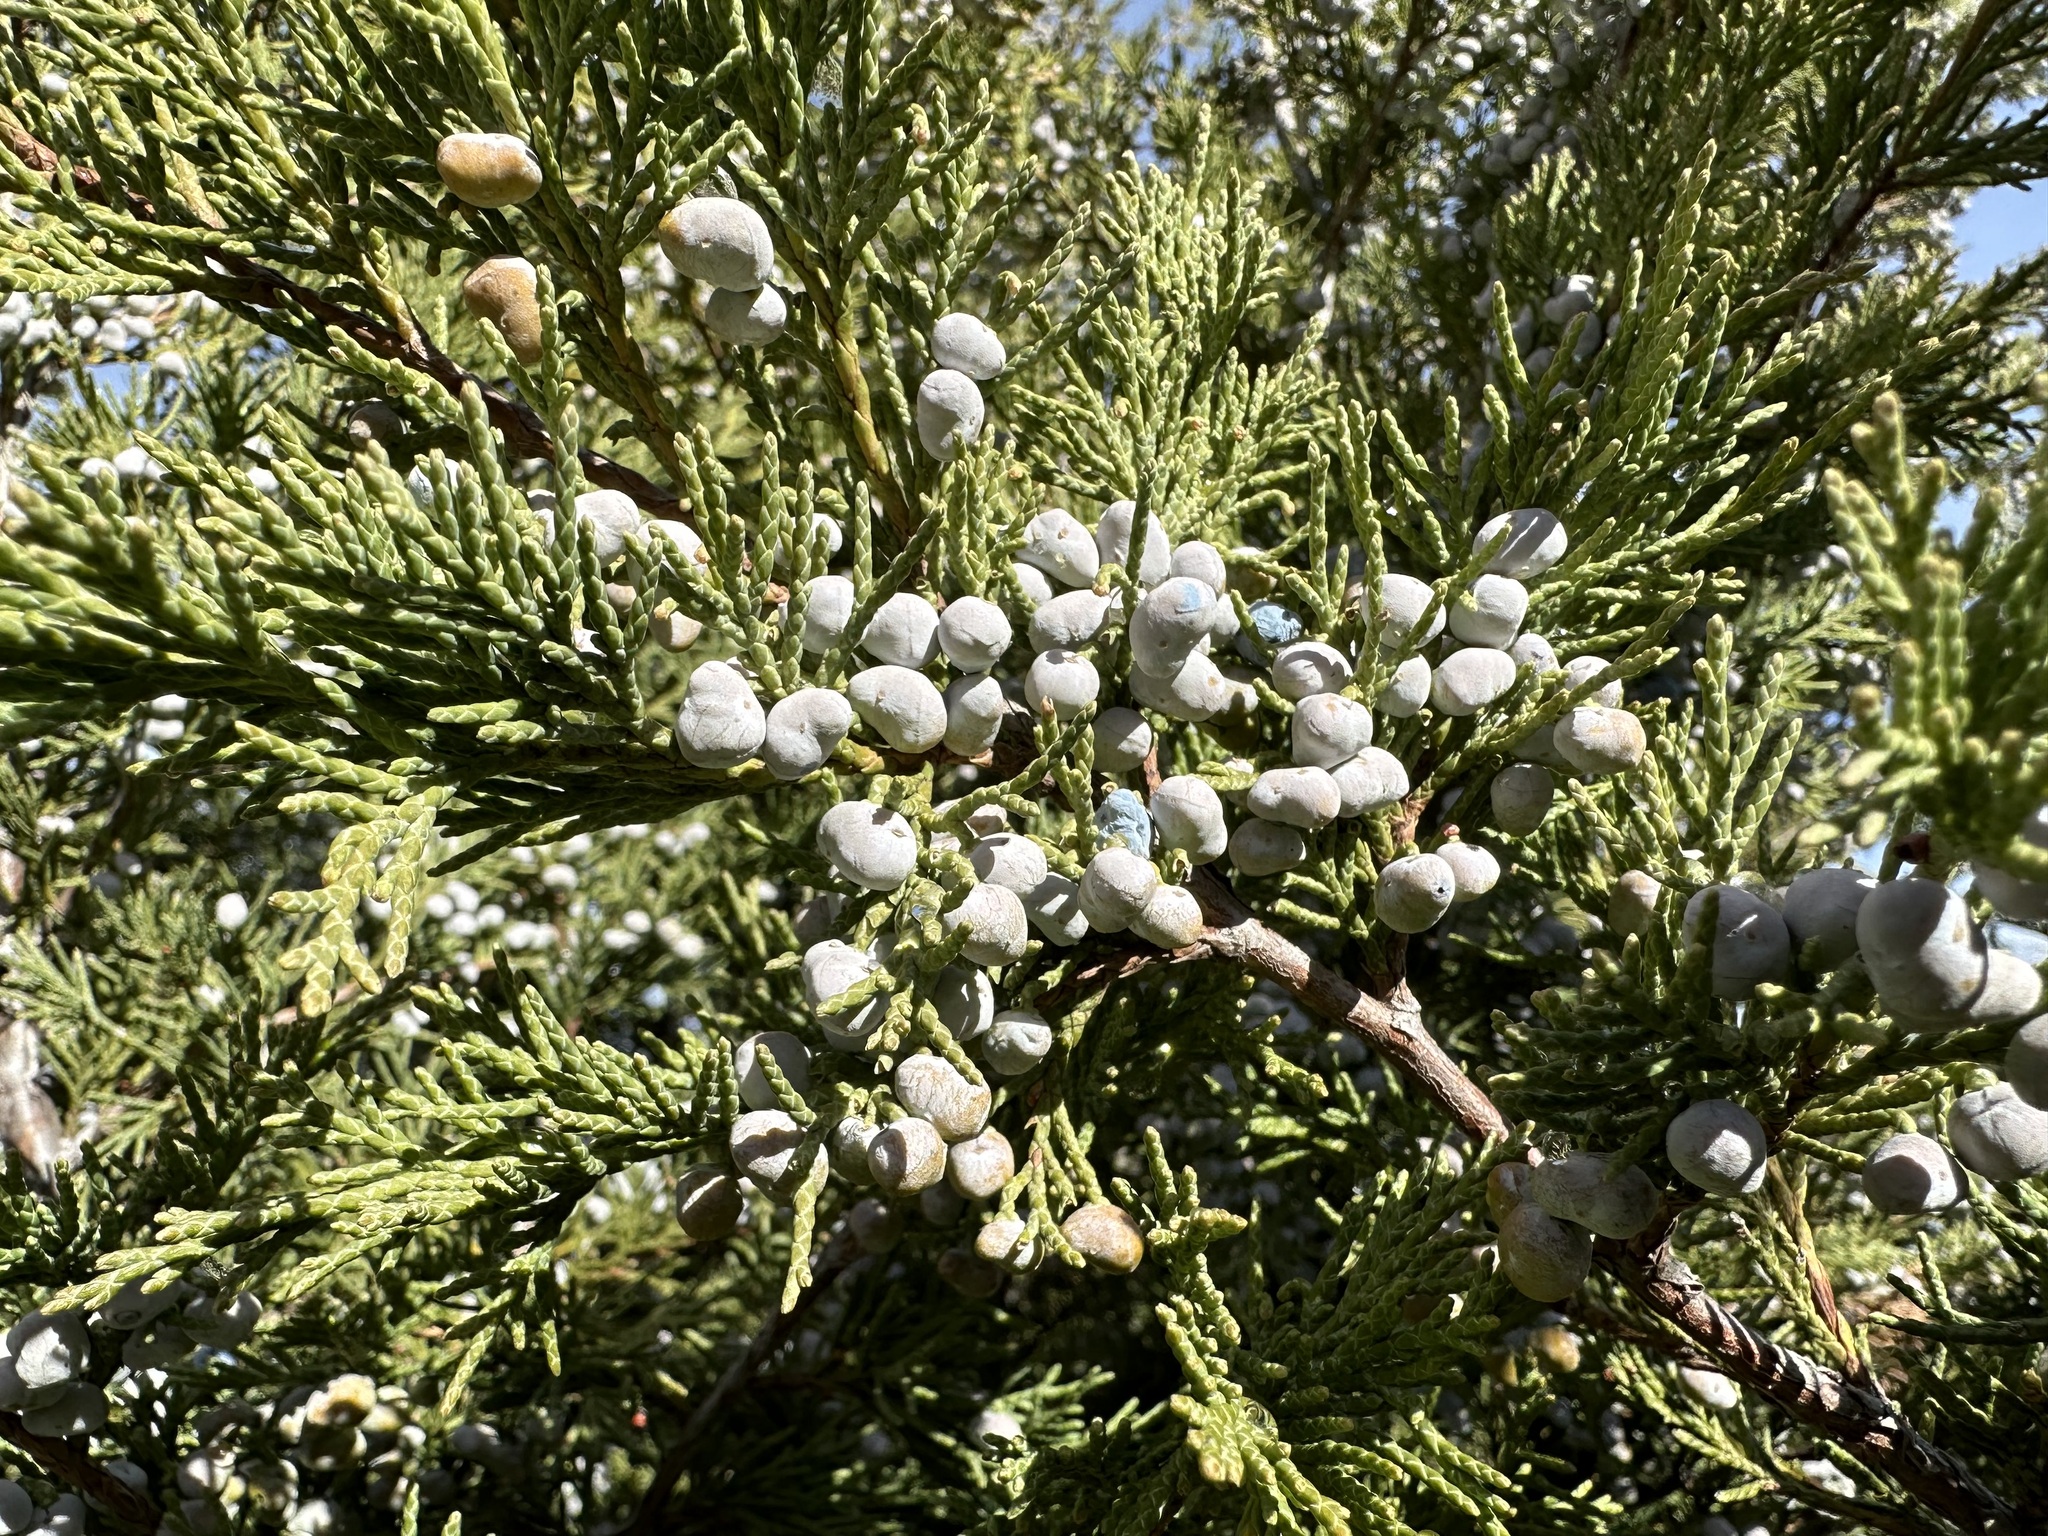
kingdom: Plantae
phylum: Tracheophyta
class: Pinopsida
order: Pinales
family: Cupressaceae
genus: Juniperus
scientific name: Juniperus scopulorum
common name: Rocky mountain juniper
